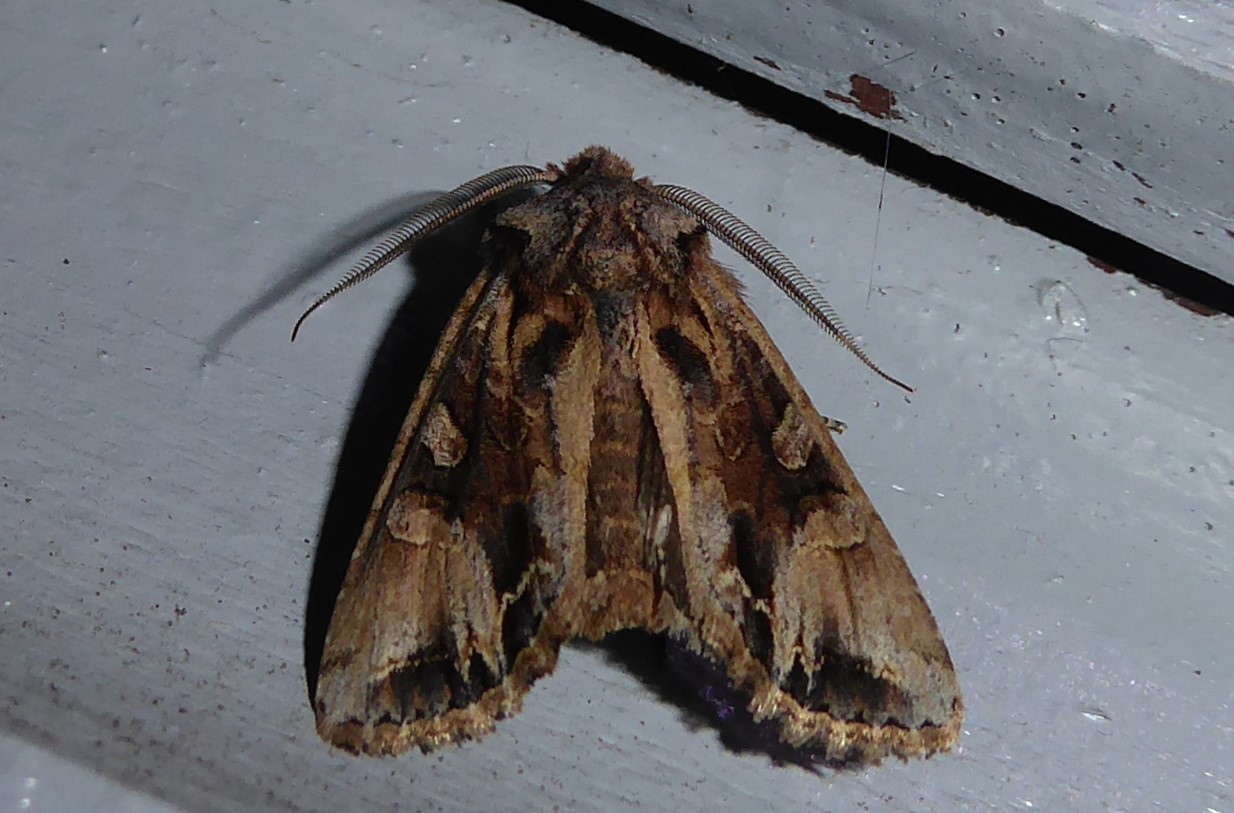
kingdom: Animalia
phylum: Arthropoda
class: Insecta
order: Lepidoptera
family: Noctuidae
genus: Ichneutica
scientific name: Ichneutica
